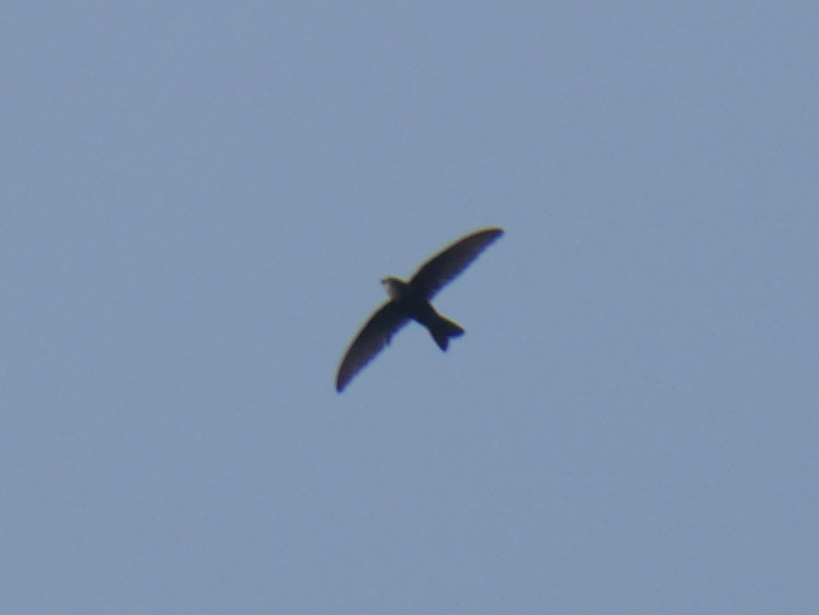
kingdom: Animalia
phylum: Chordata
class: Aves
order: Apodiformes
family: Apodidae
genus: Apus
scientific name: Apus nipalensis
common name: House swift
